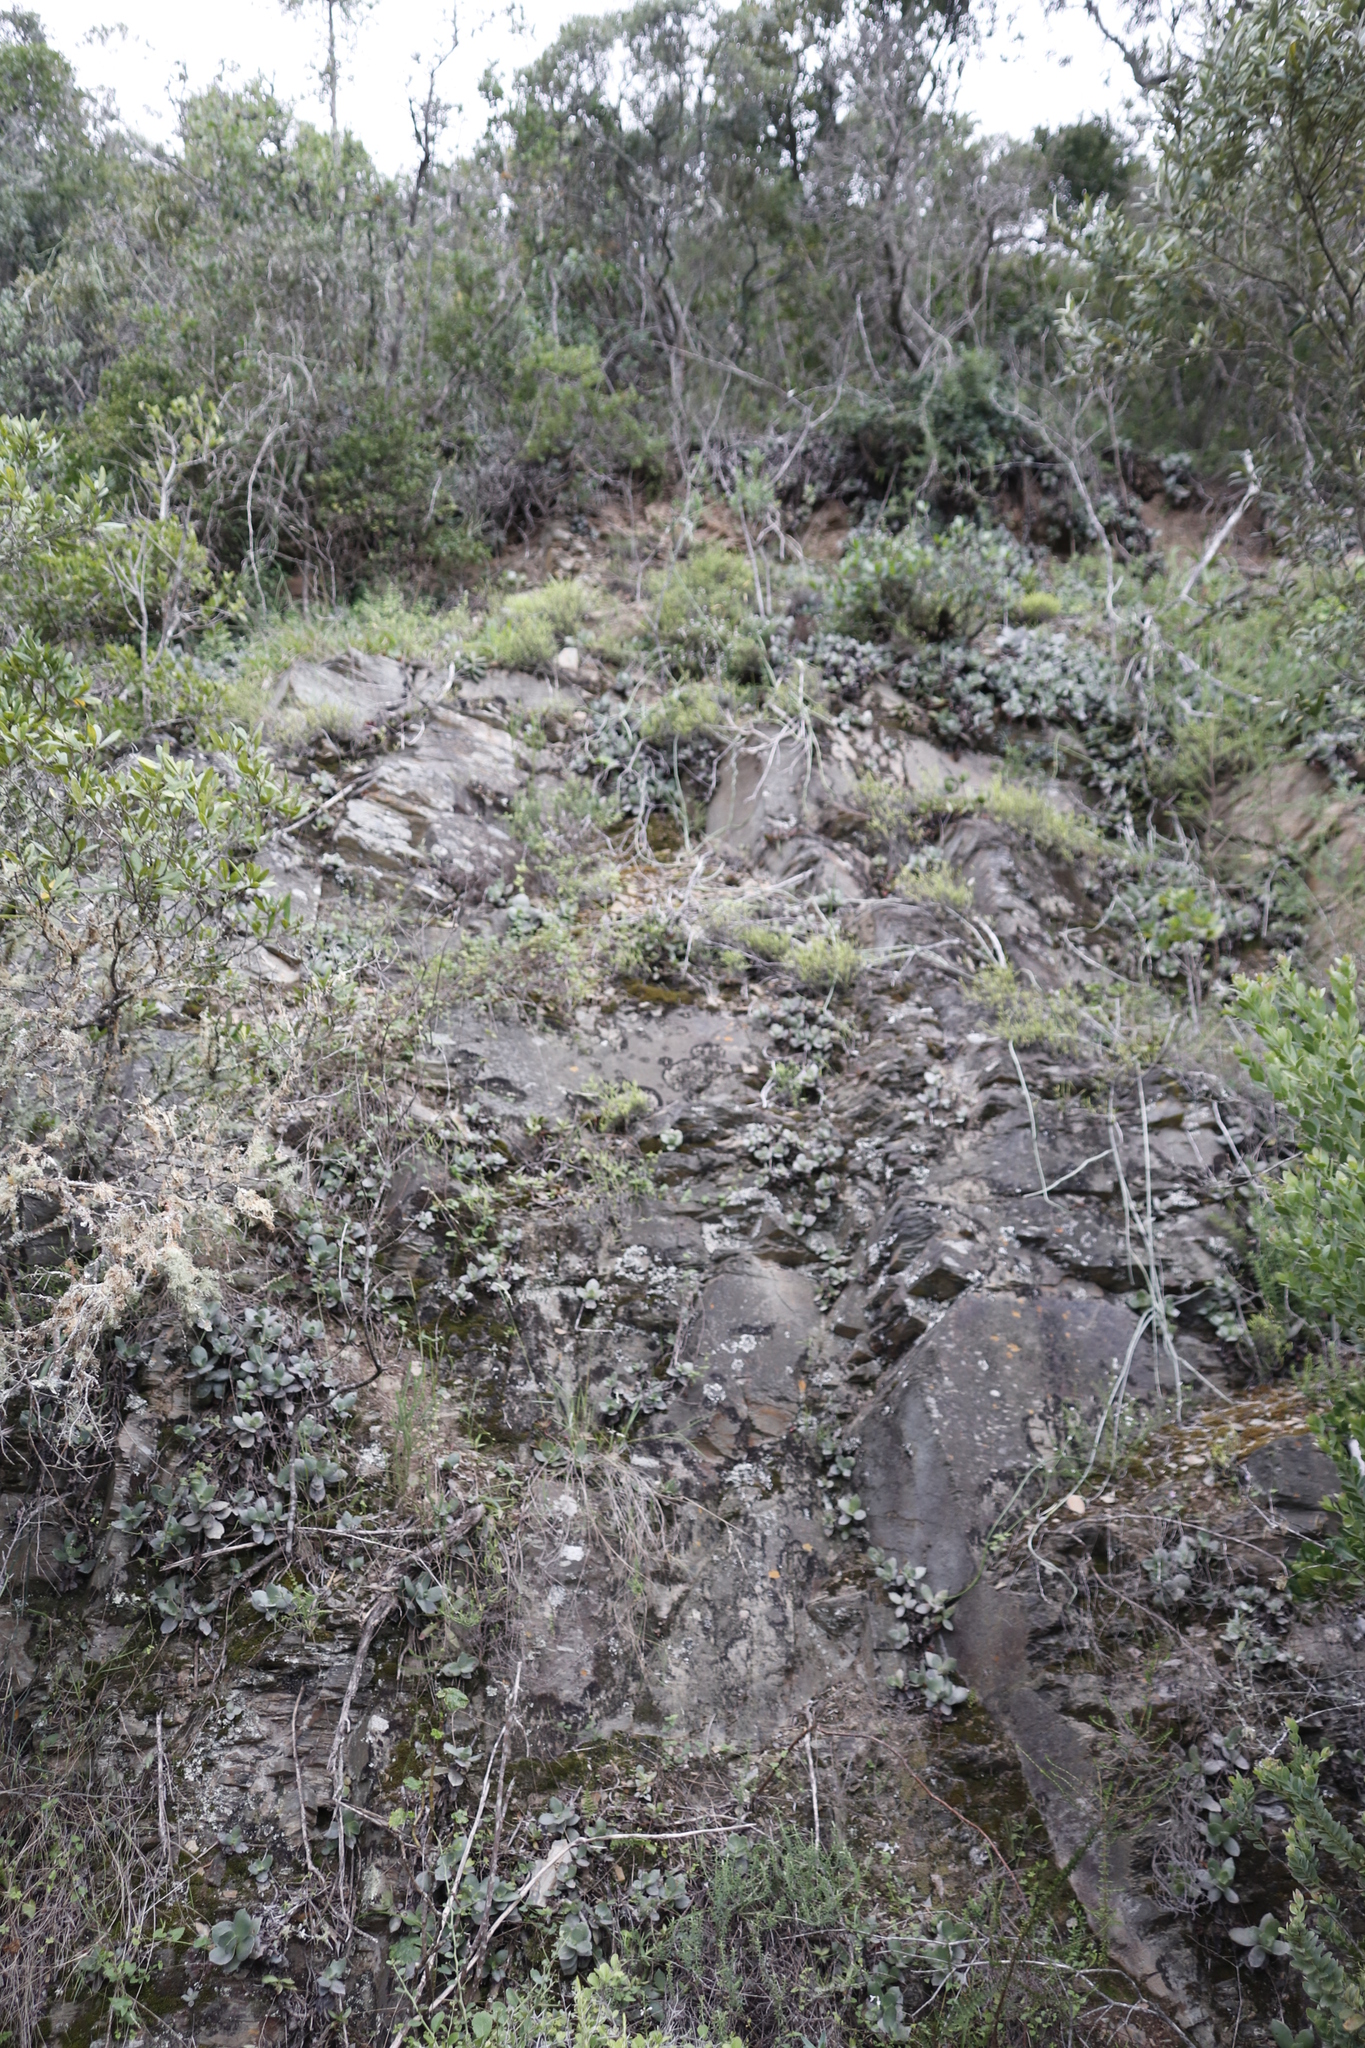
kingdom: Plantae
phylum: Tracheophyta
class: Magnoliopsida
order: Saxifragales
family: Crassulaceae
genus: Crassula
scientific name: Crassula lactea
